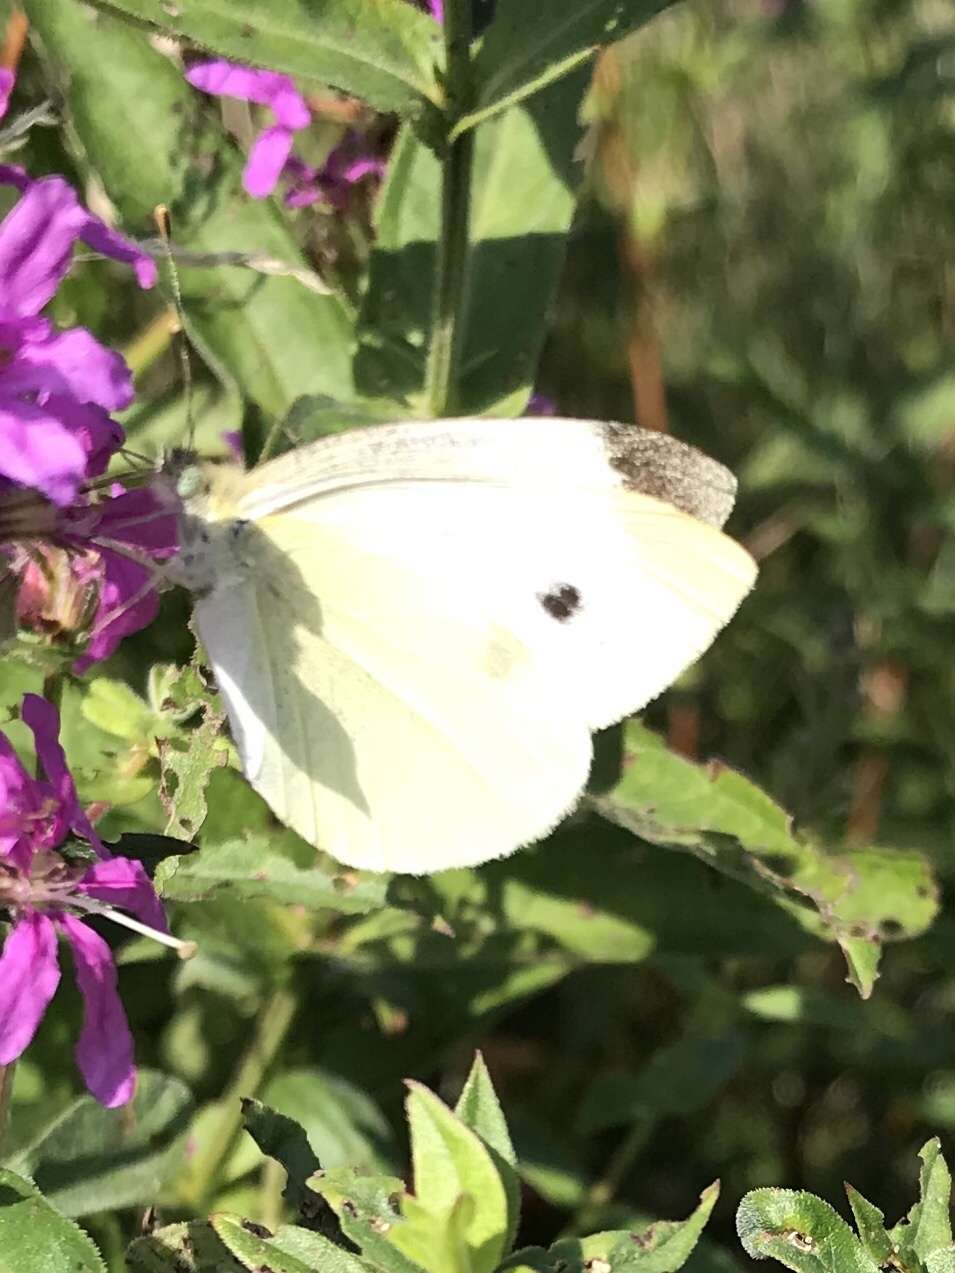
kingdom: Animalia
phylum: Arthropoda
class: Insecta
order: Lepidoptera
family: Pieridae
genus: Pieris
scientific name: Pieris rapae
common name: Small white
